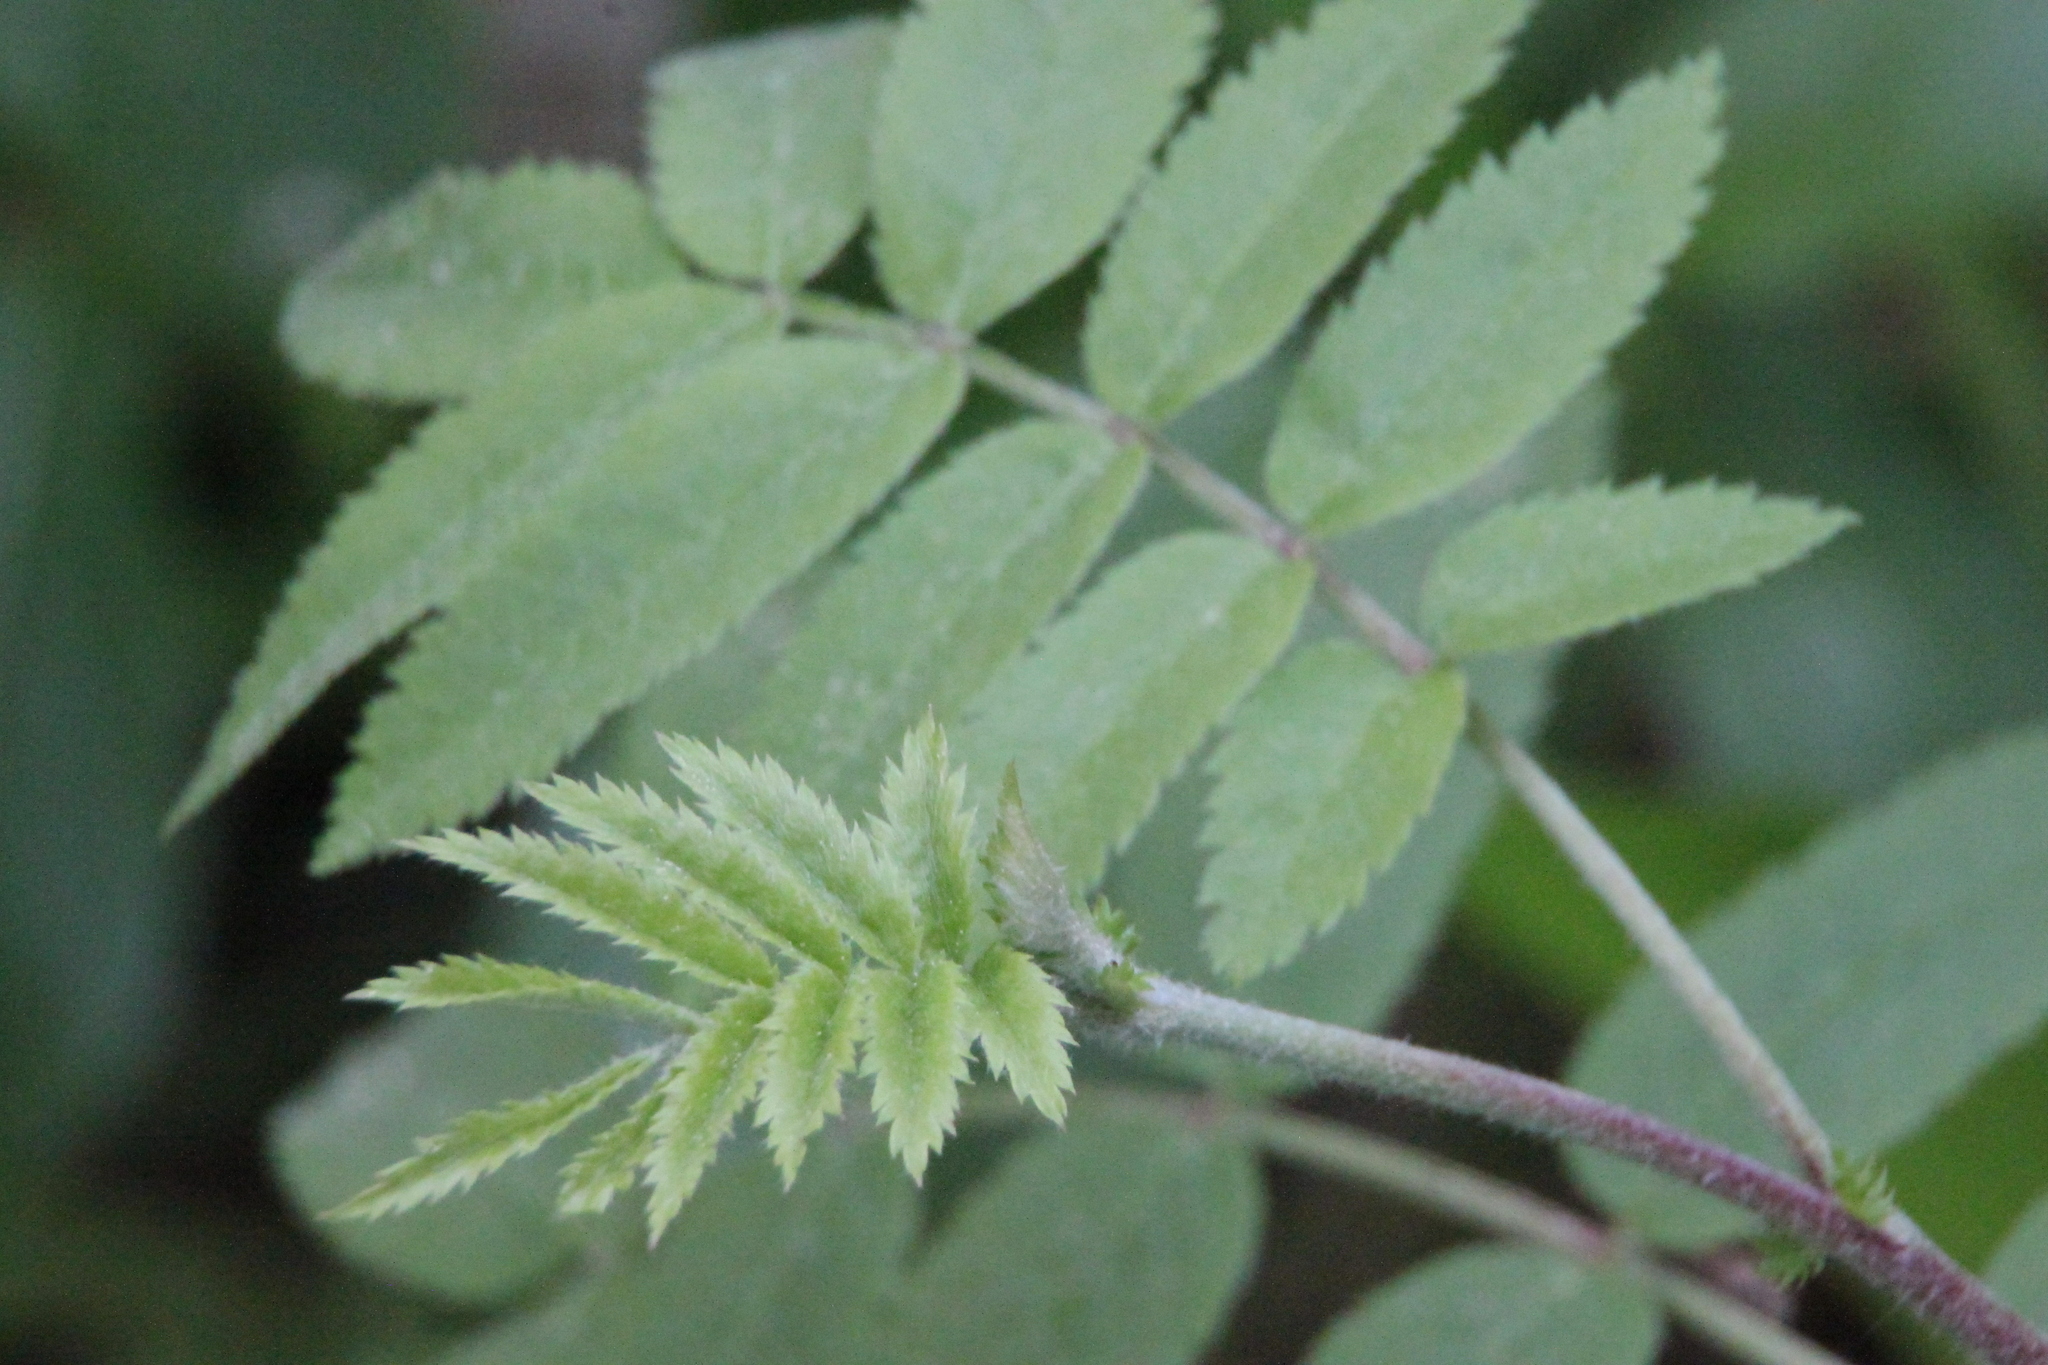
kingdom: Plantae
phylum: Tracheophyta
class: Magnoliopsida
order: Rosales
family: Rosaceae
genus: Sorbus
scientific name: Sorbus aucuparia
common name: Rowan
